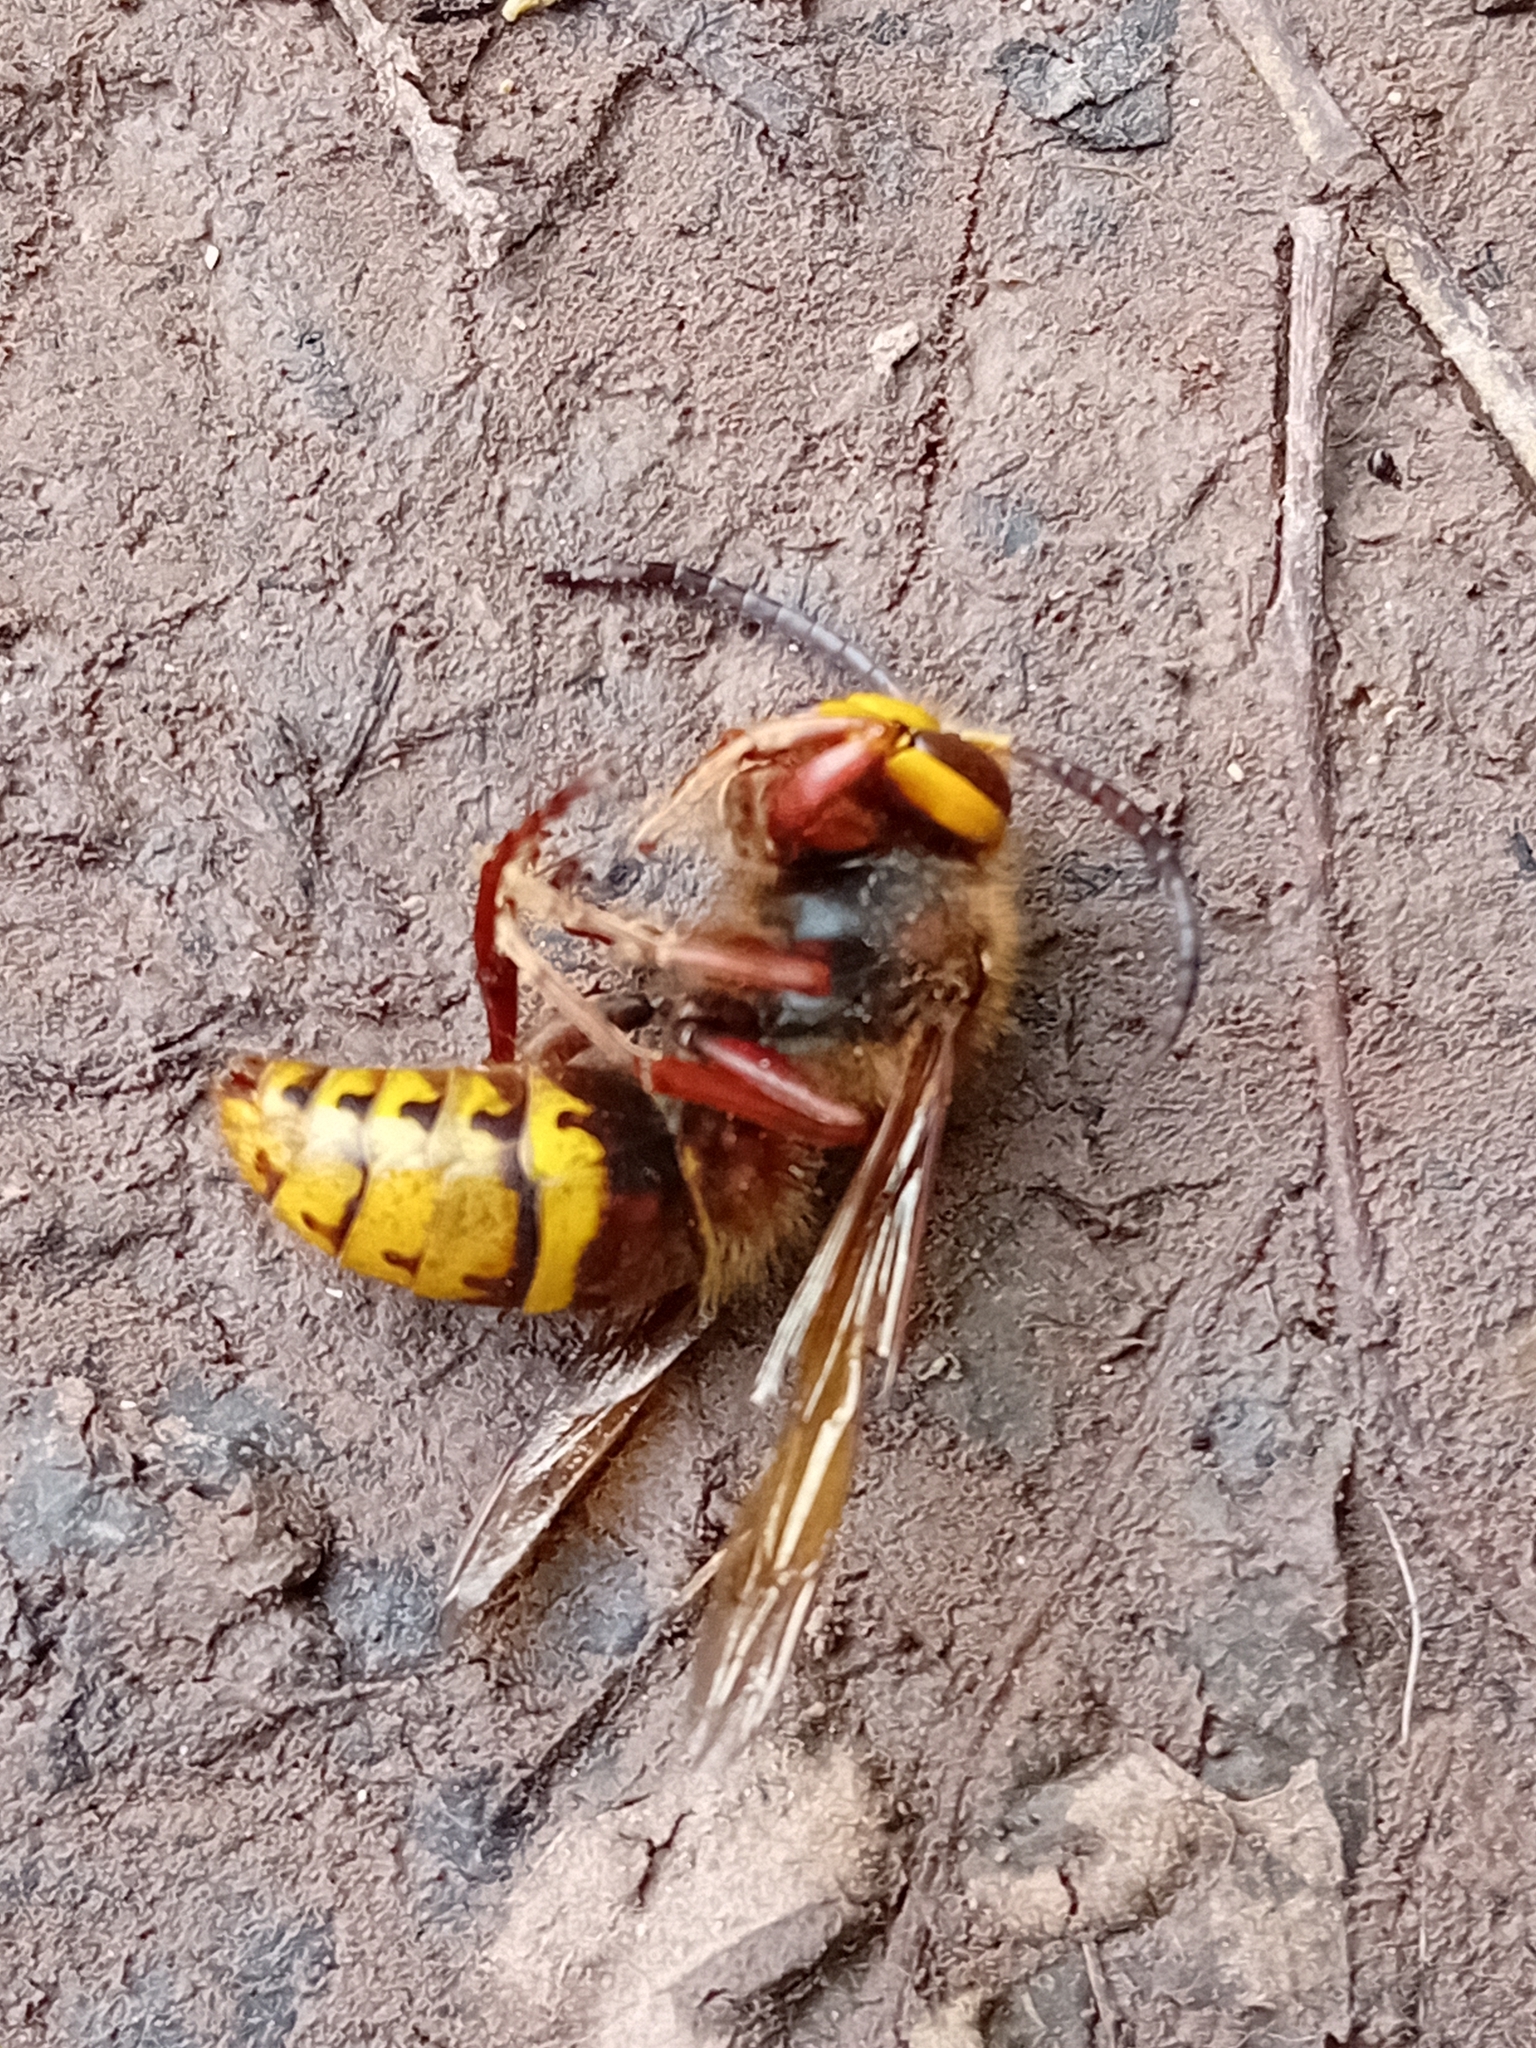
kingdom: Animalia
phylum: Arthropoda
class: Insecta
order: Hymenoptera
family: Vespidae
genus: Vespa
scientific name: Vespa crabro
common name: Hornet
